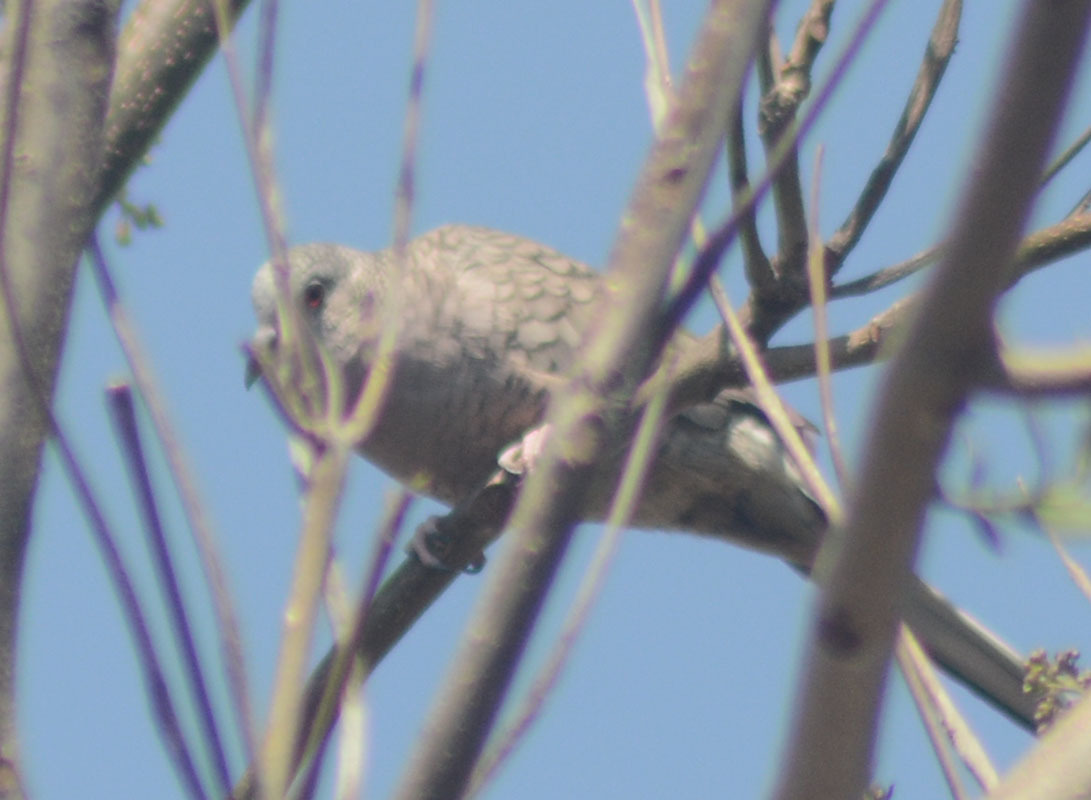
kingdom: Animalia
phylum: Chordata
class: Aves
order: Columbiformes
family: Columbidae
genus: Columbina
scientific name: Columbina inca
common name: Inca dove
